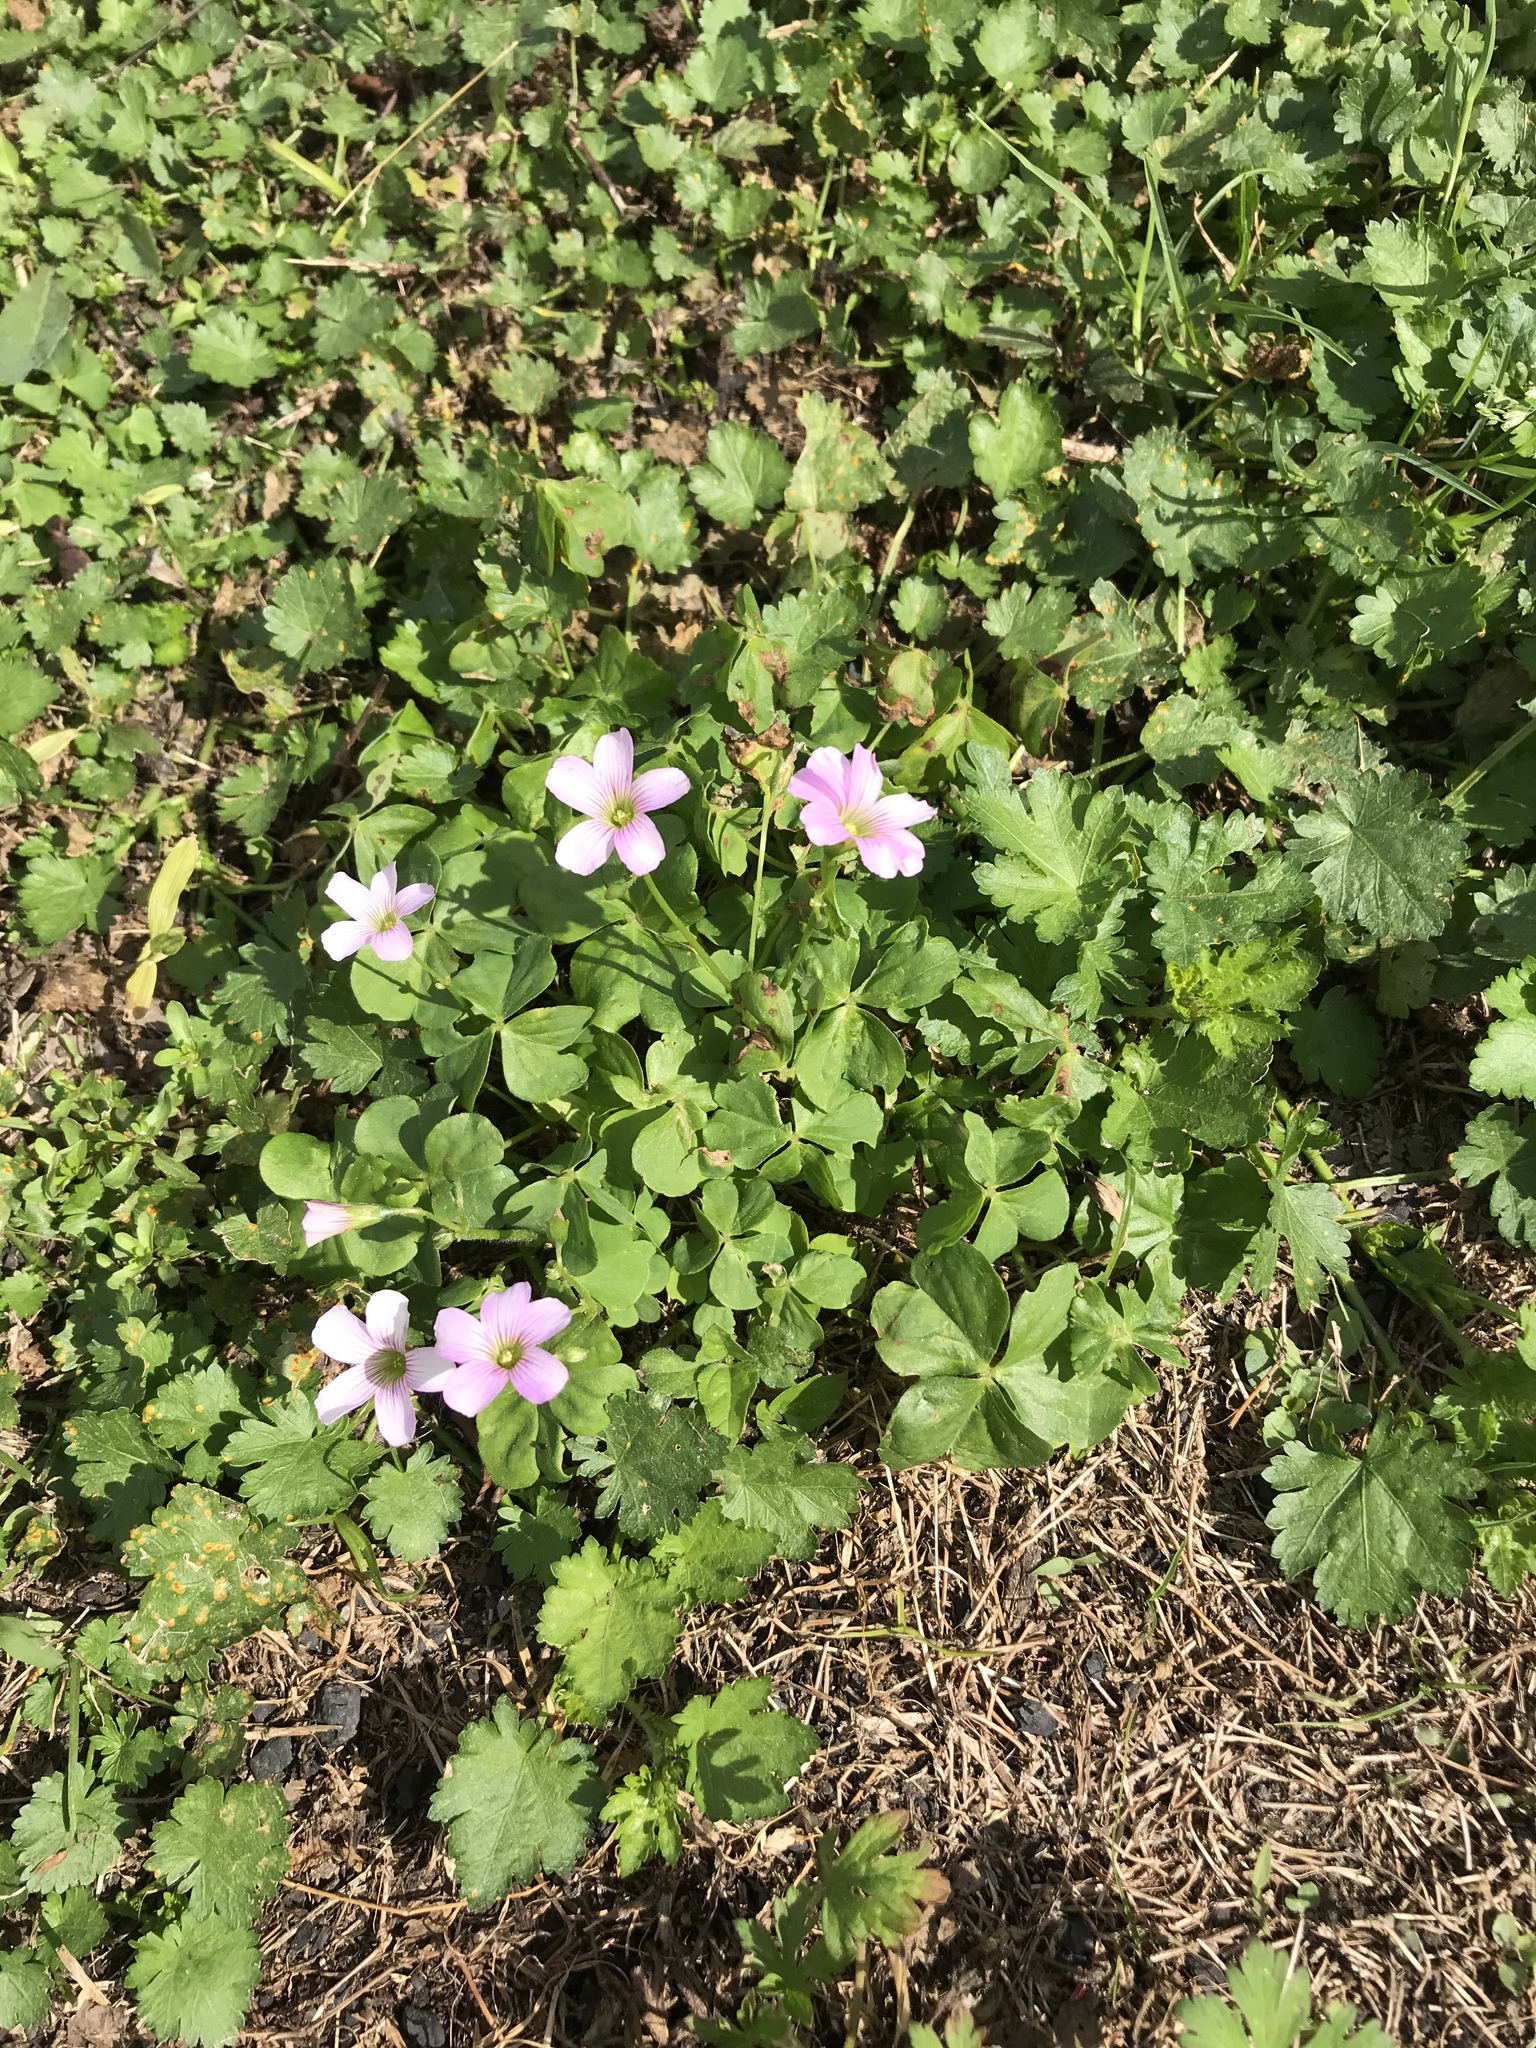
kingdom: Plantae
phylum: Tracheophyta
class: Magnoliopsida
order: Oxalidales
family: Oxalidaceae
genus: Oxalis
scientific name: Oxalis debilis
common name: Large-flowered pink-sorrel
